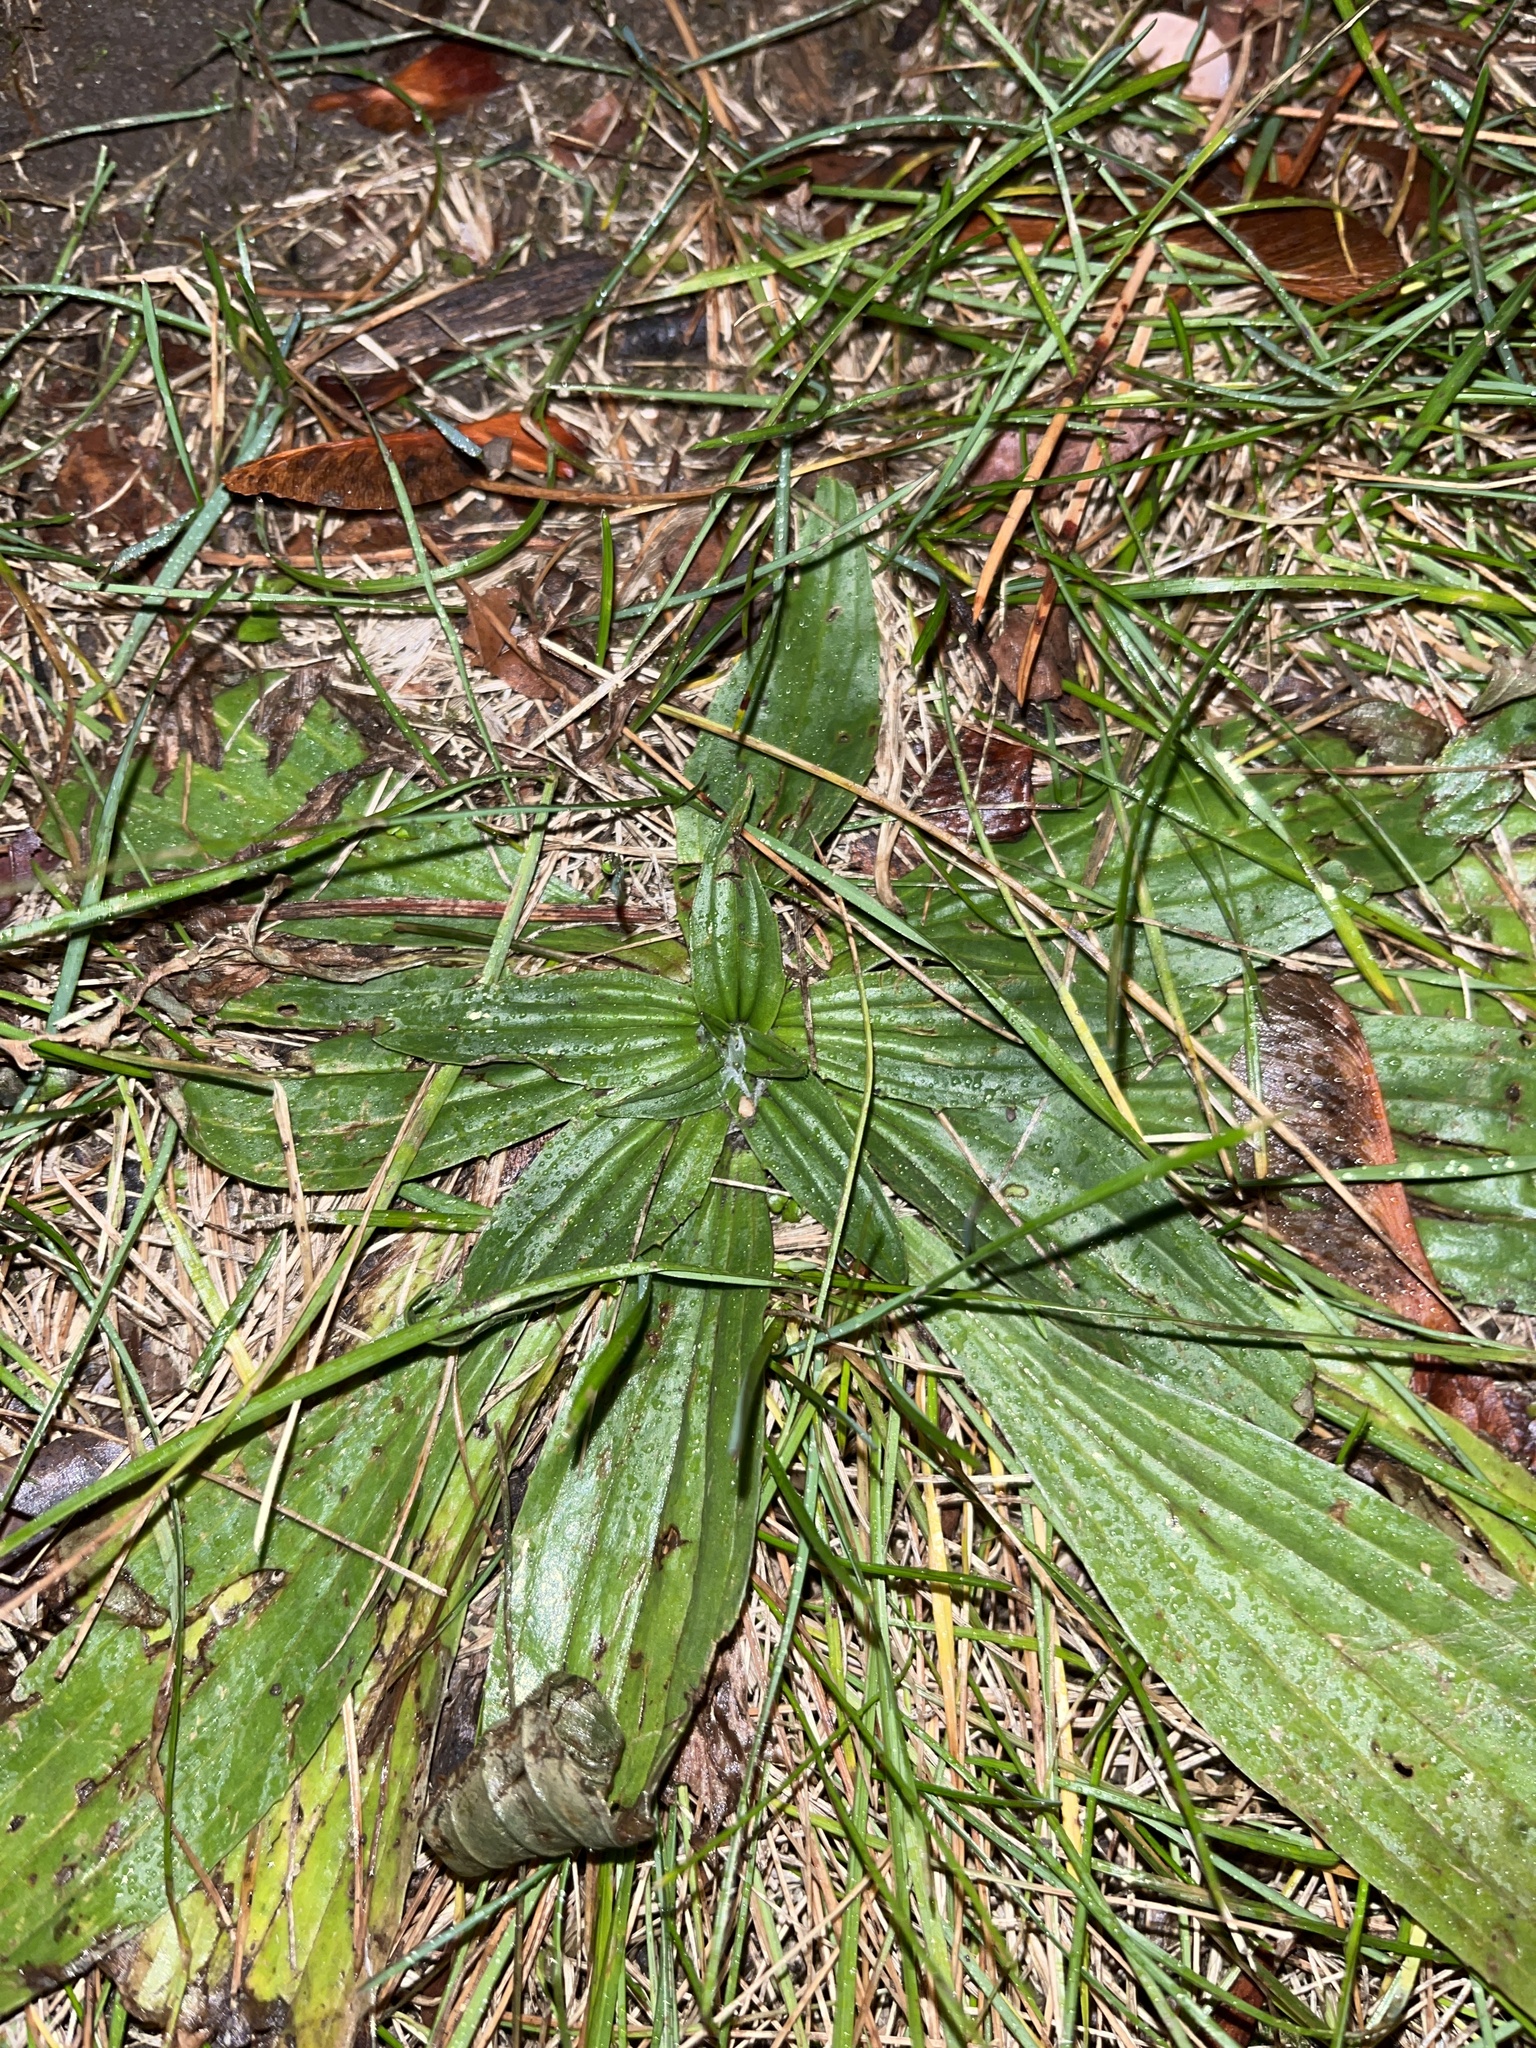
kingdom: Plantae
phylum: Tracheophyta
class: Magnoliopsida
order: Lamiales
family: Plantaginaceae
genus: Plantago
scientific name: Plantago lanceolata
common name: Ribwort plantain
